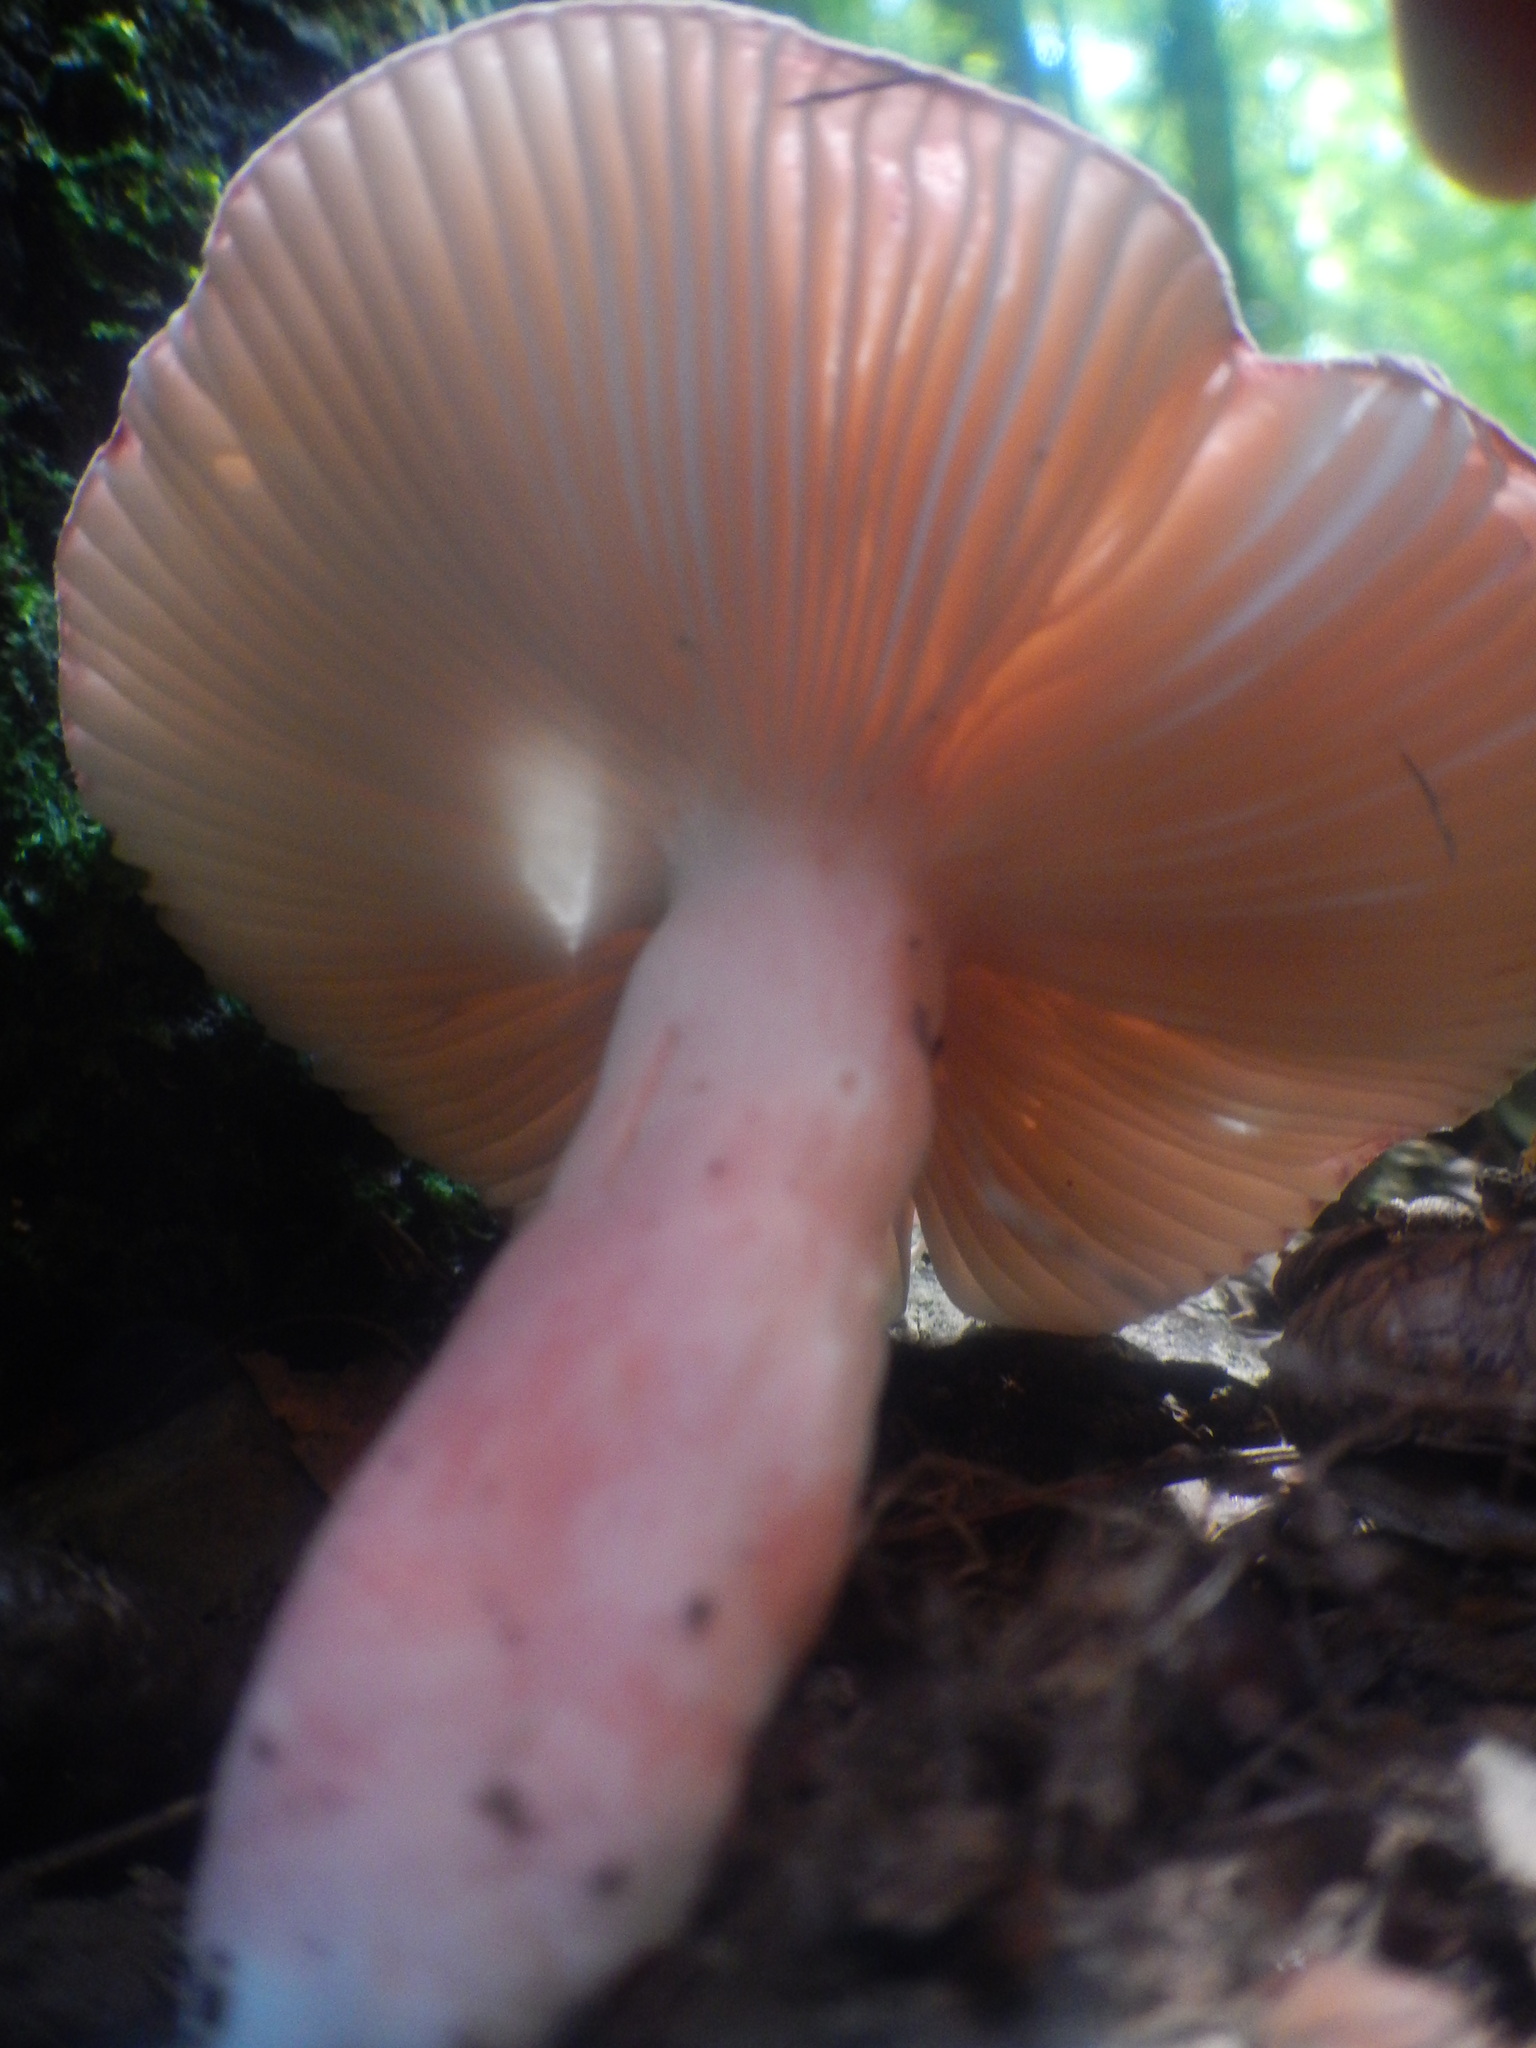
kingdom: Fungi
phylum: Basidiomycota
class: Agaricomycetes
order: Russulales
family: Russulaceae
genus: Russula
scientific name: Russula mariae
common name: Purple-bloom russula
